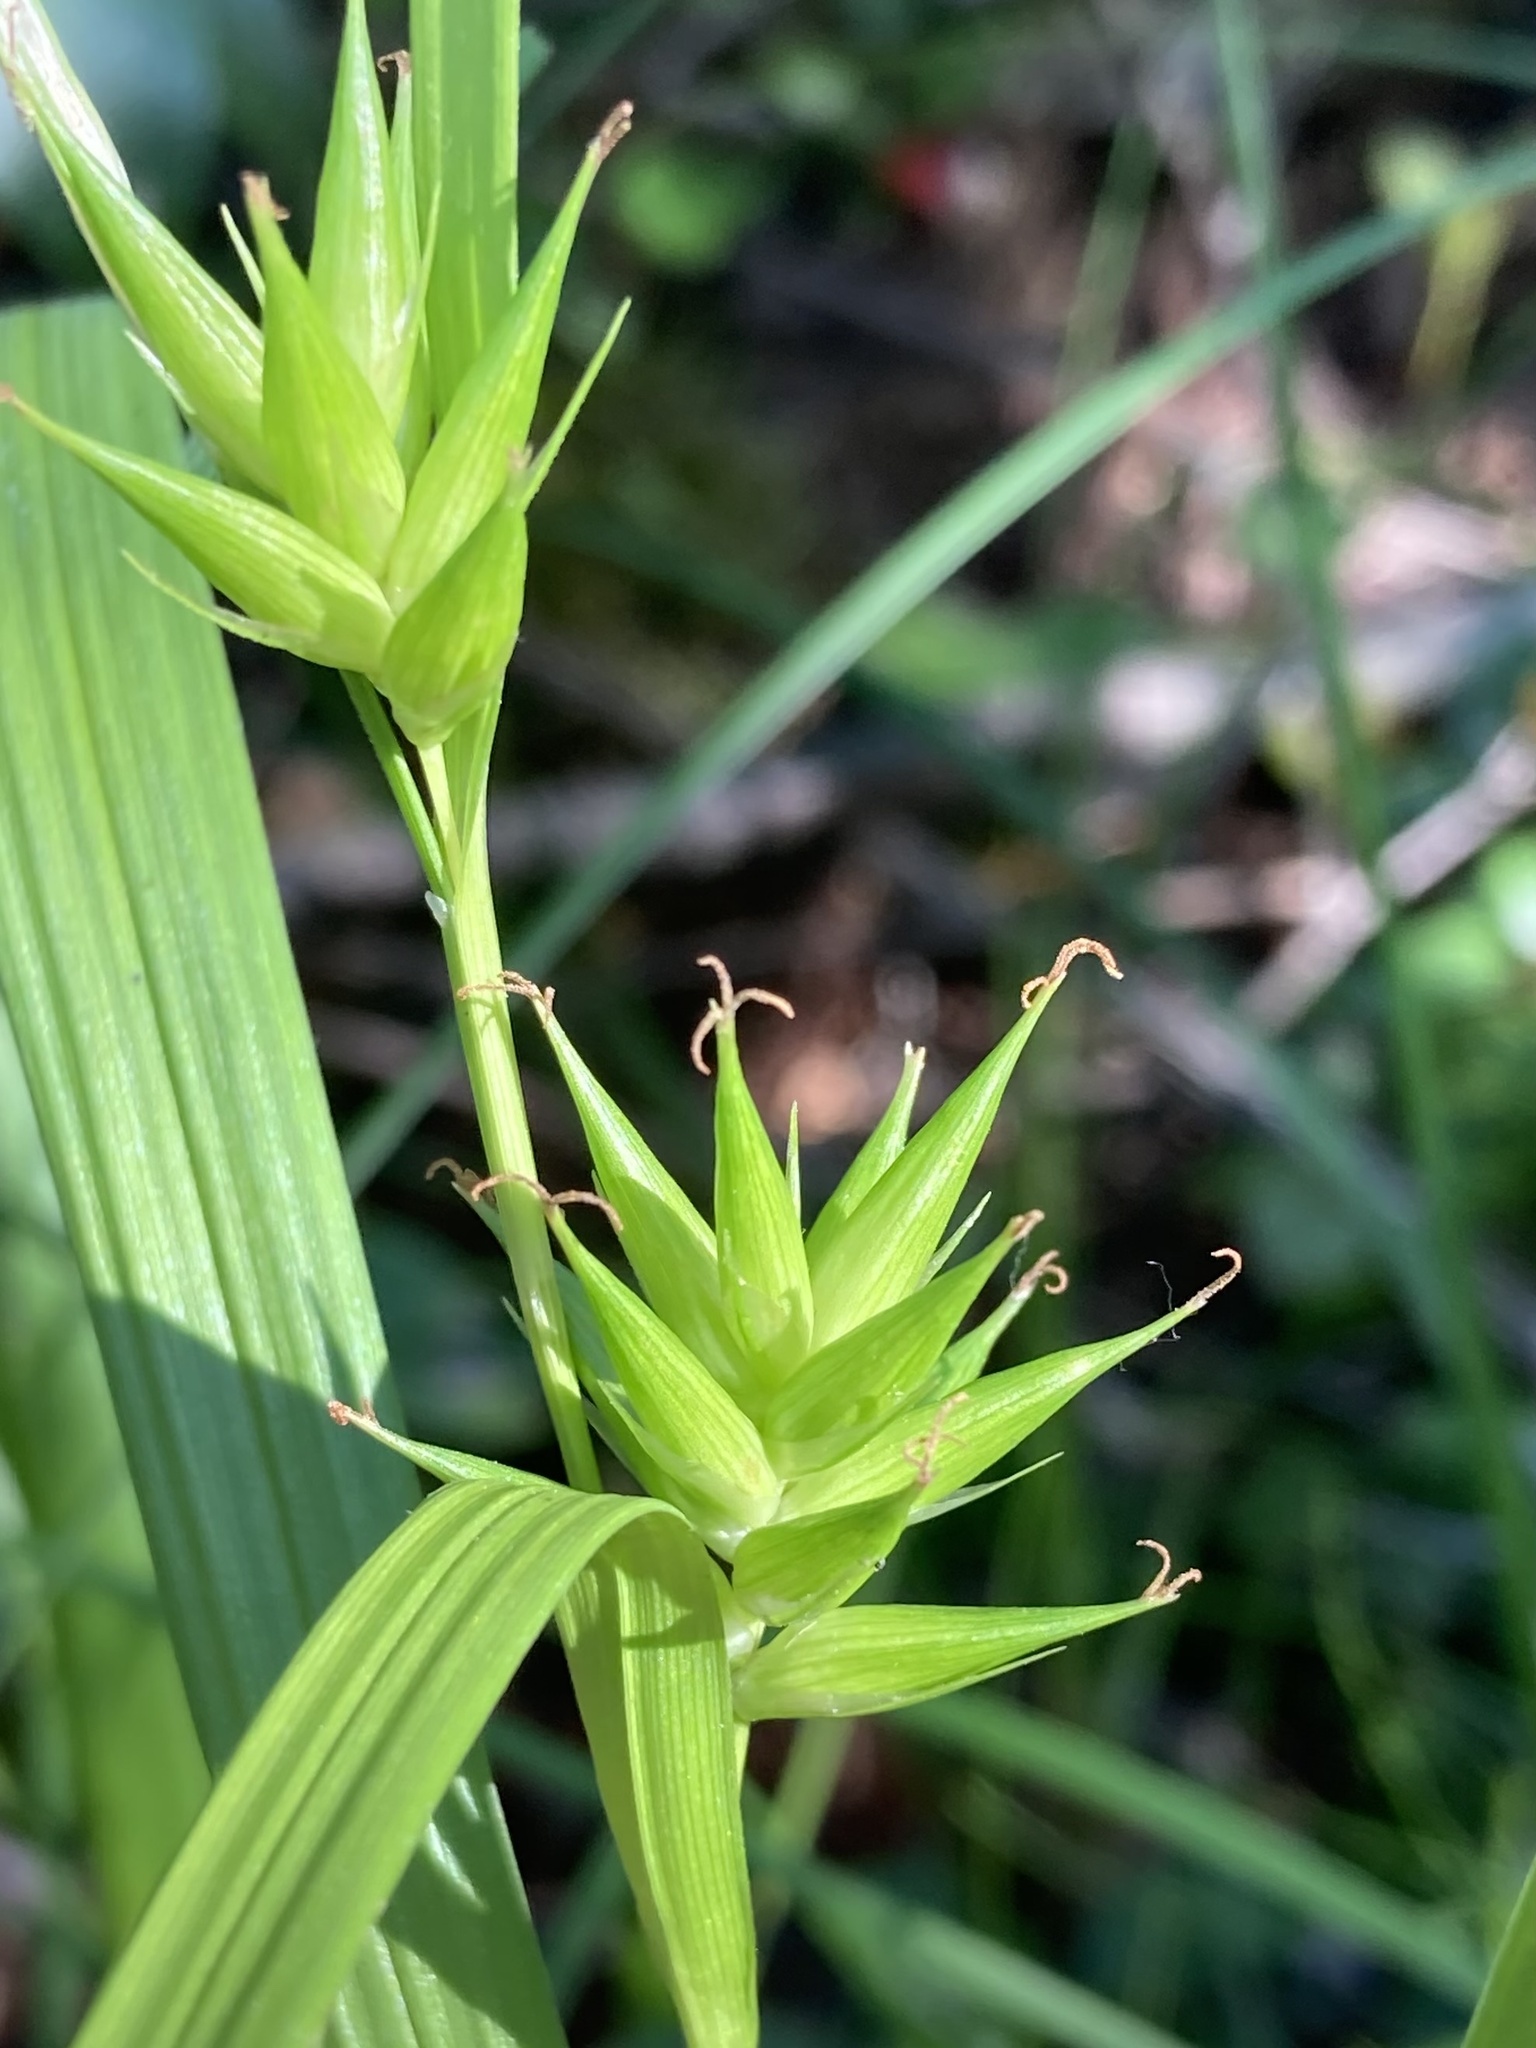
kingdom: Plantae
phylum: Tracheophyta
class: Liliopsida
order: Poales
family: Cyperaceae
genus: Carex
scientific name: Carex folliculata
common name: Northern long sedge
